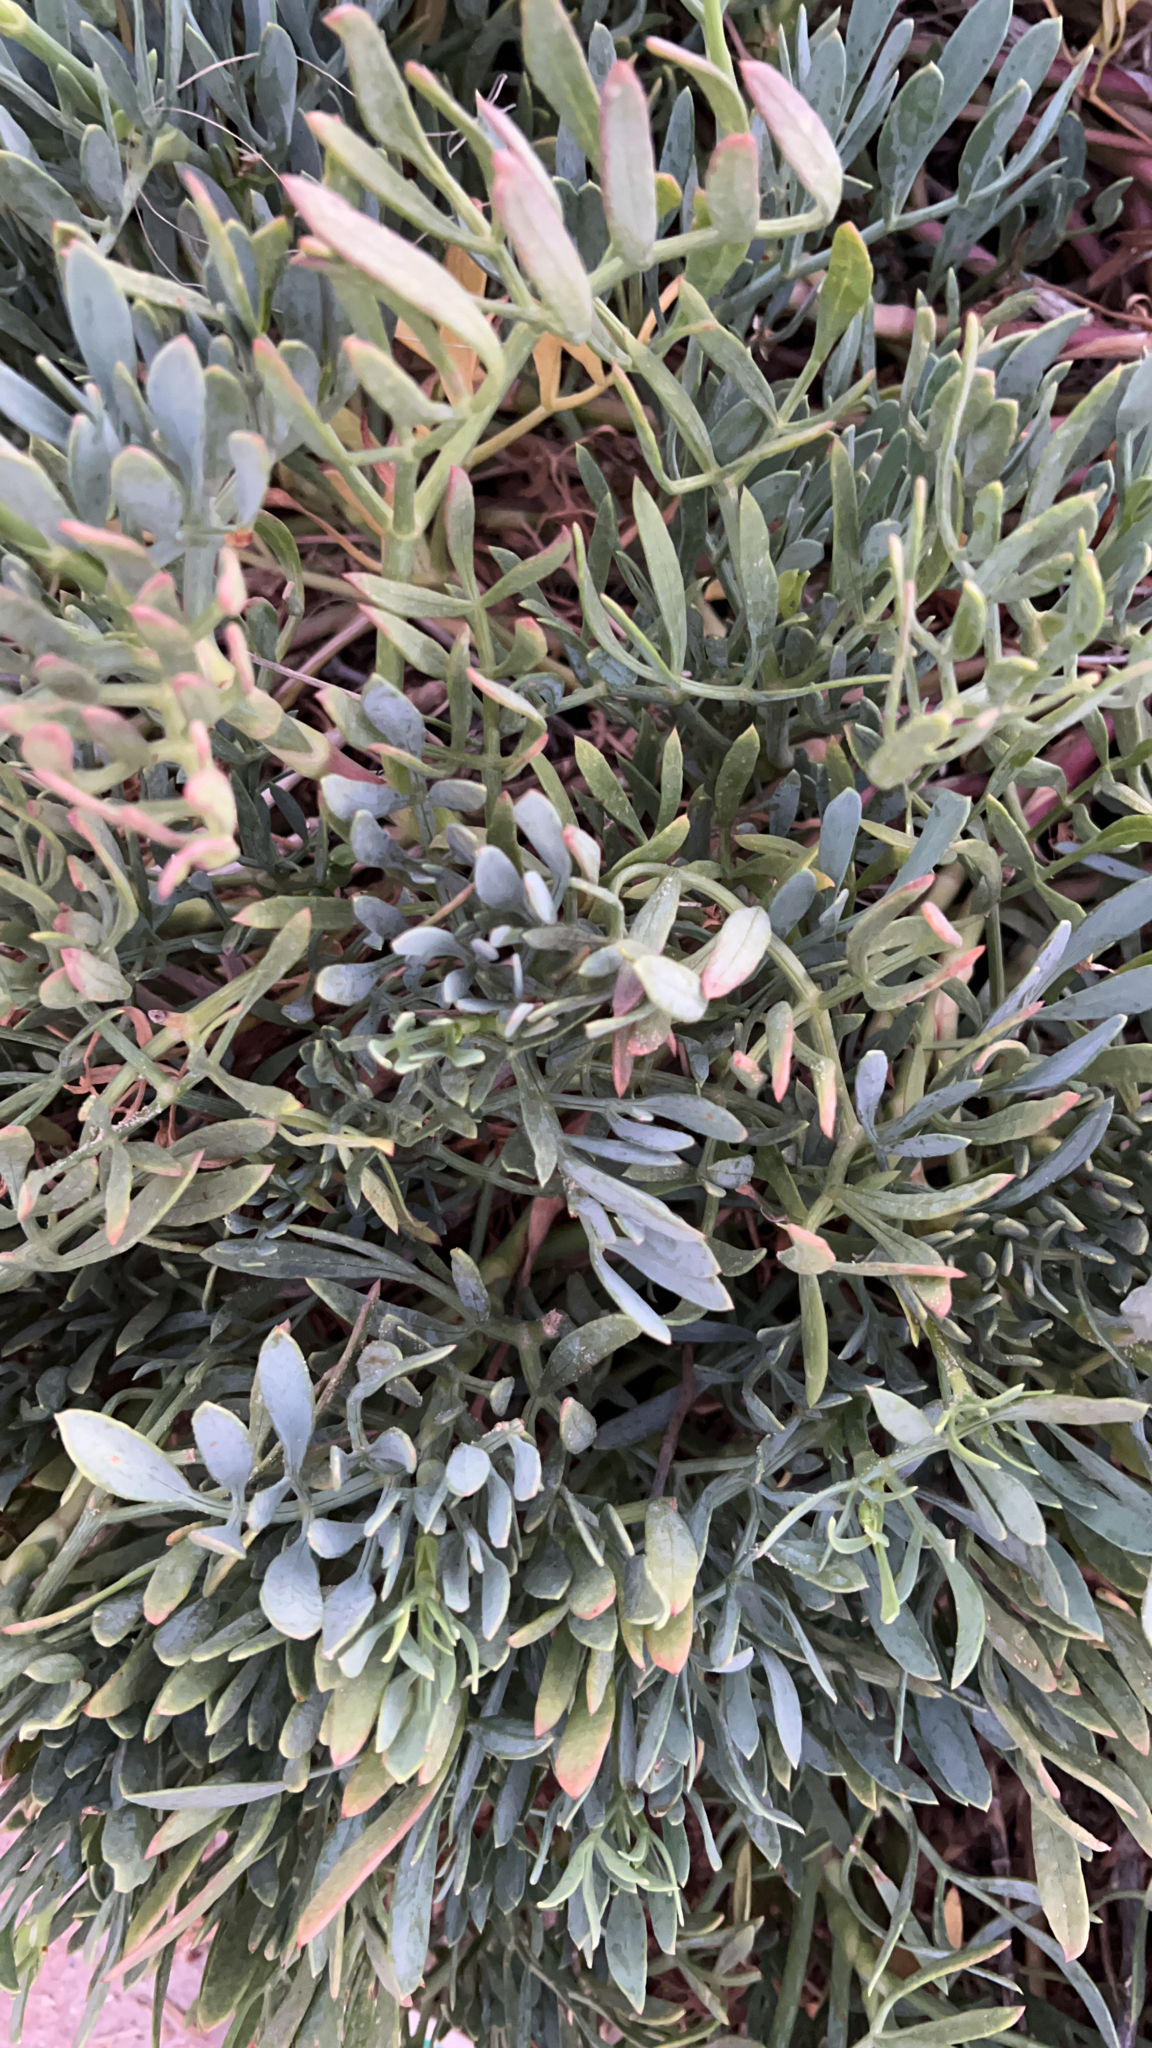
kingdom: Plantae
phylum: Tracheophyta
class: Magnoliopsida
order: Apiales
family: Apiaceae
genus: Crithmum
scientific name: Crithmum maritimum
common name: Rock samphire
